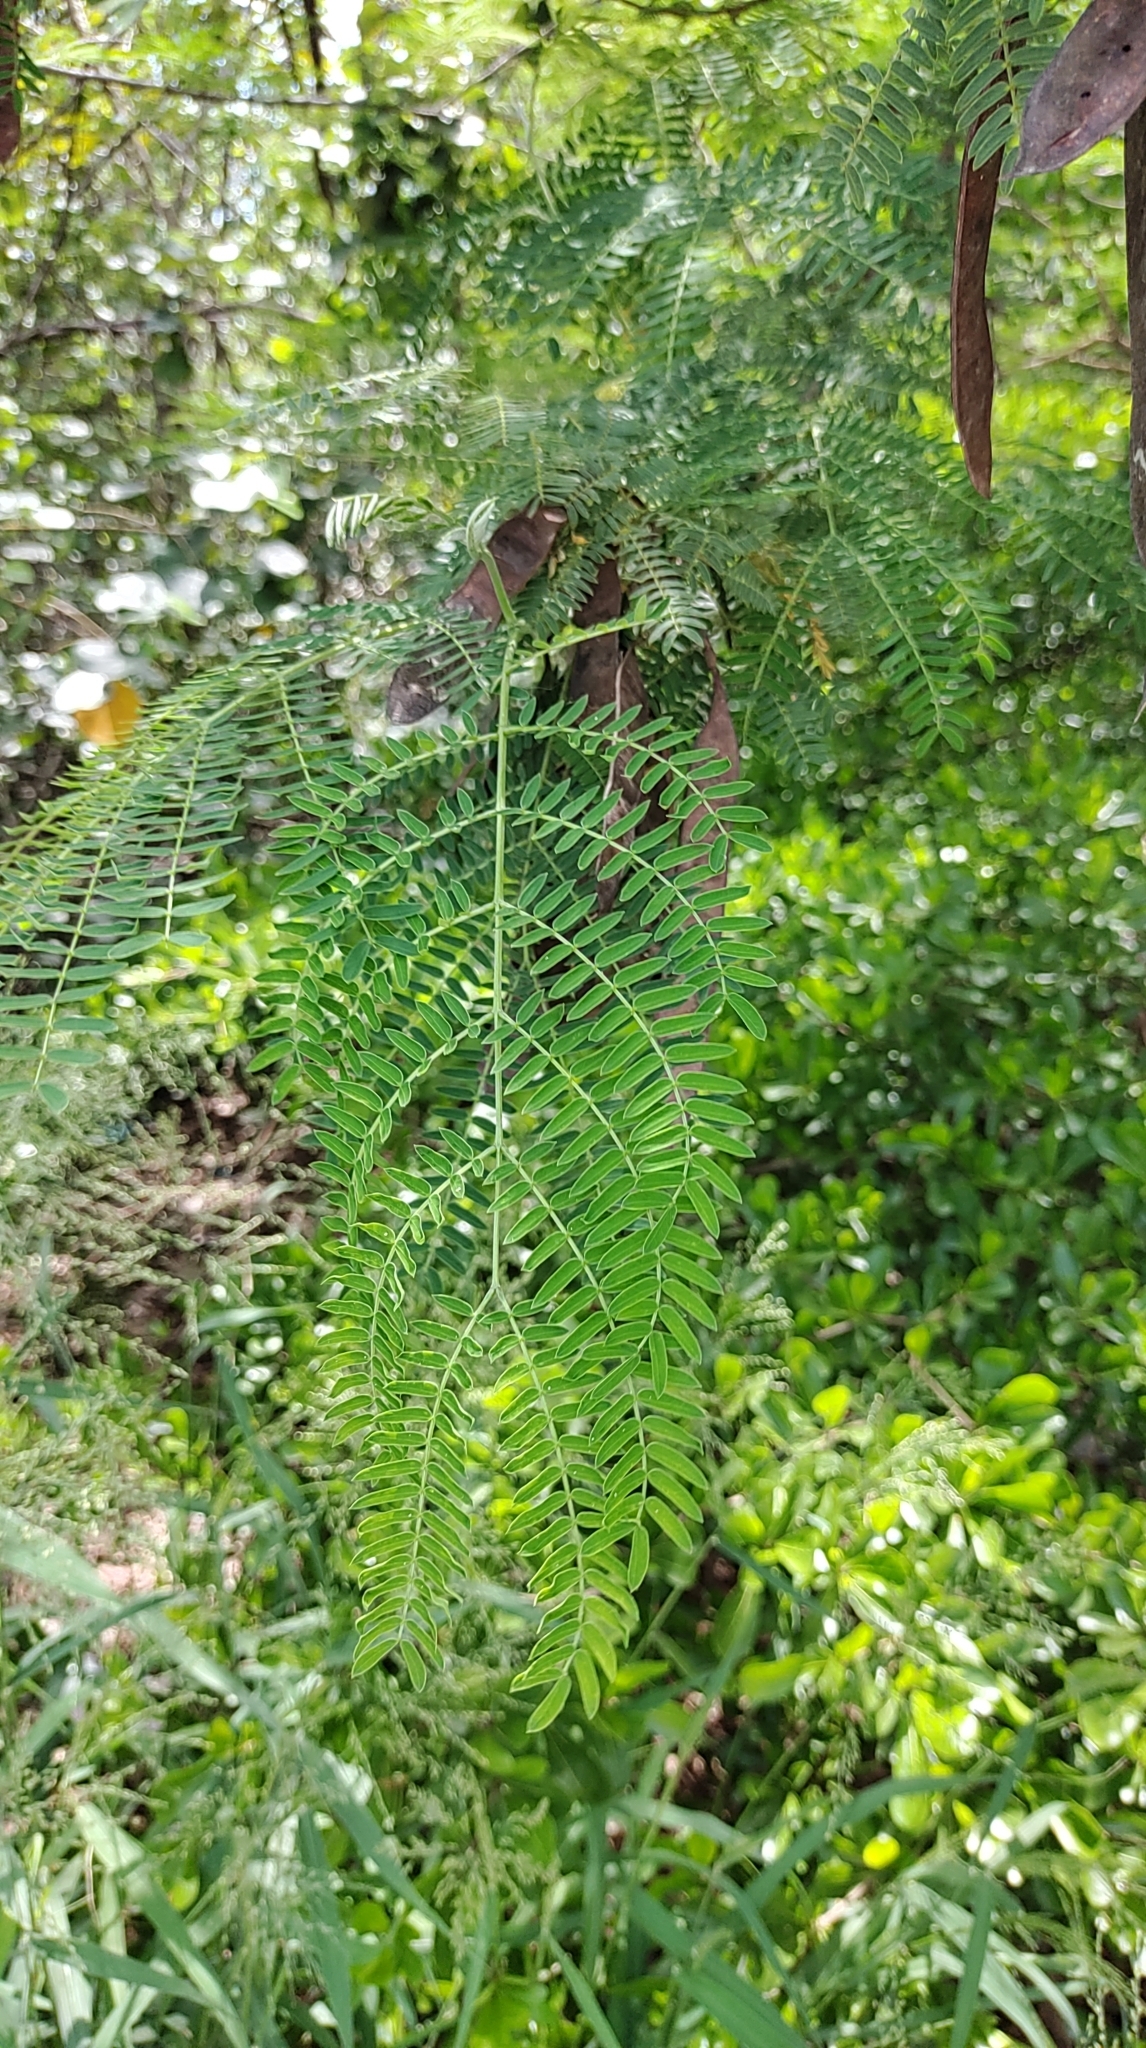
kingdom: Plantae
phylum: Tracheophyta
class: Magnoliopsida
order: Fabales
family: Fabaceae
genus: Leucaena
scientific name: Leucaena leucocephala
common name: White leadtree
